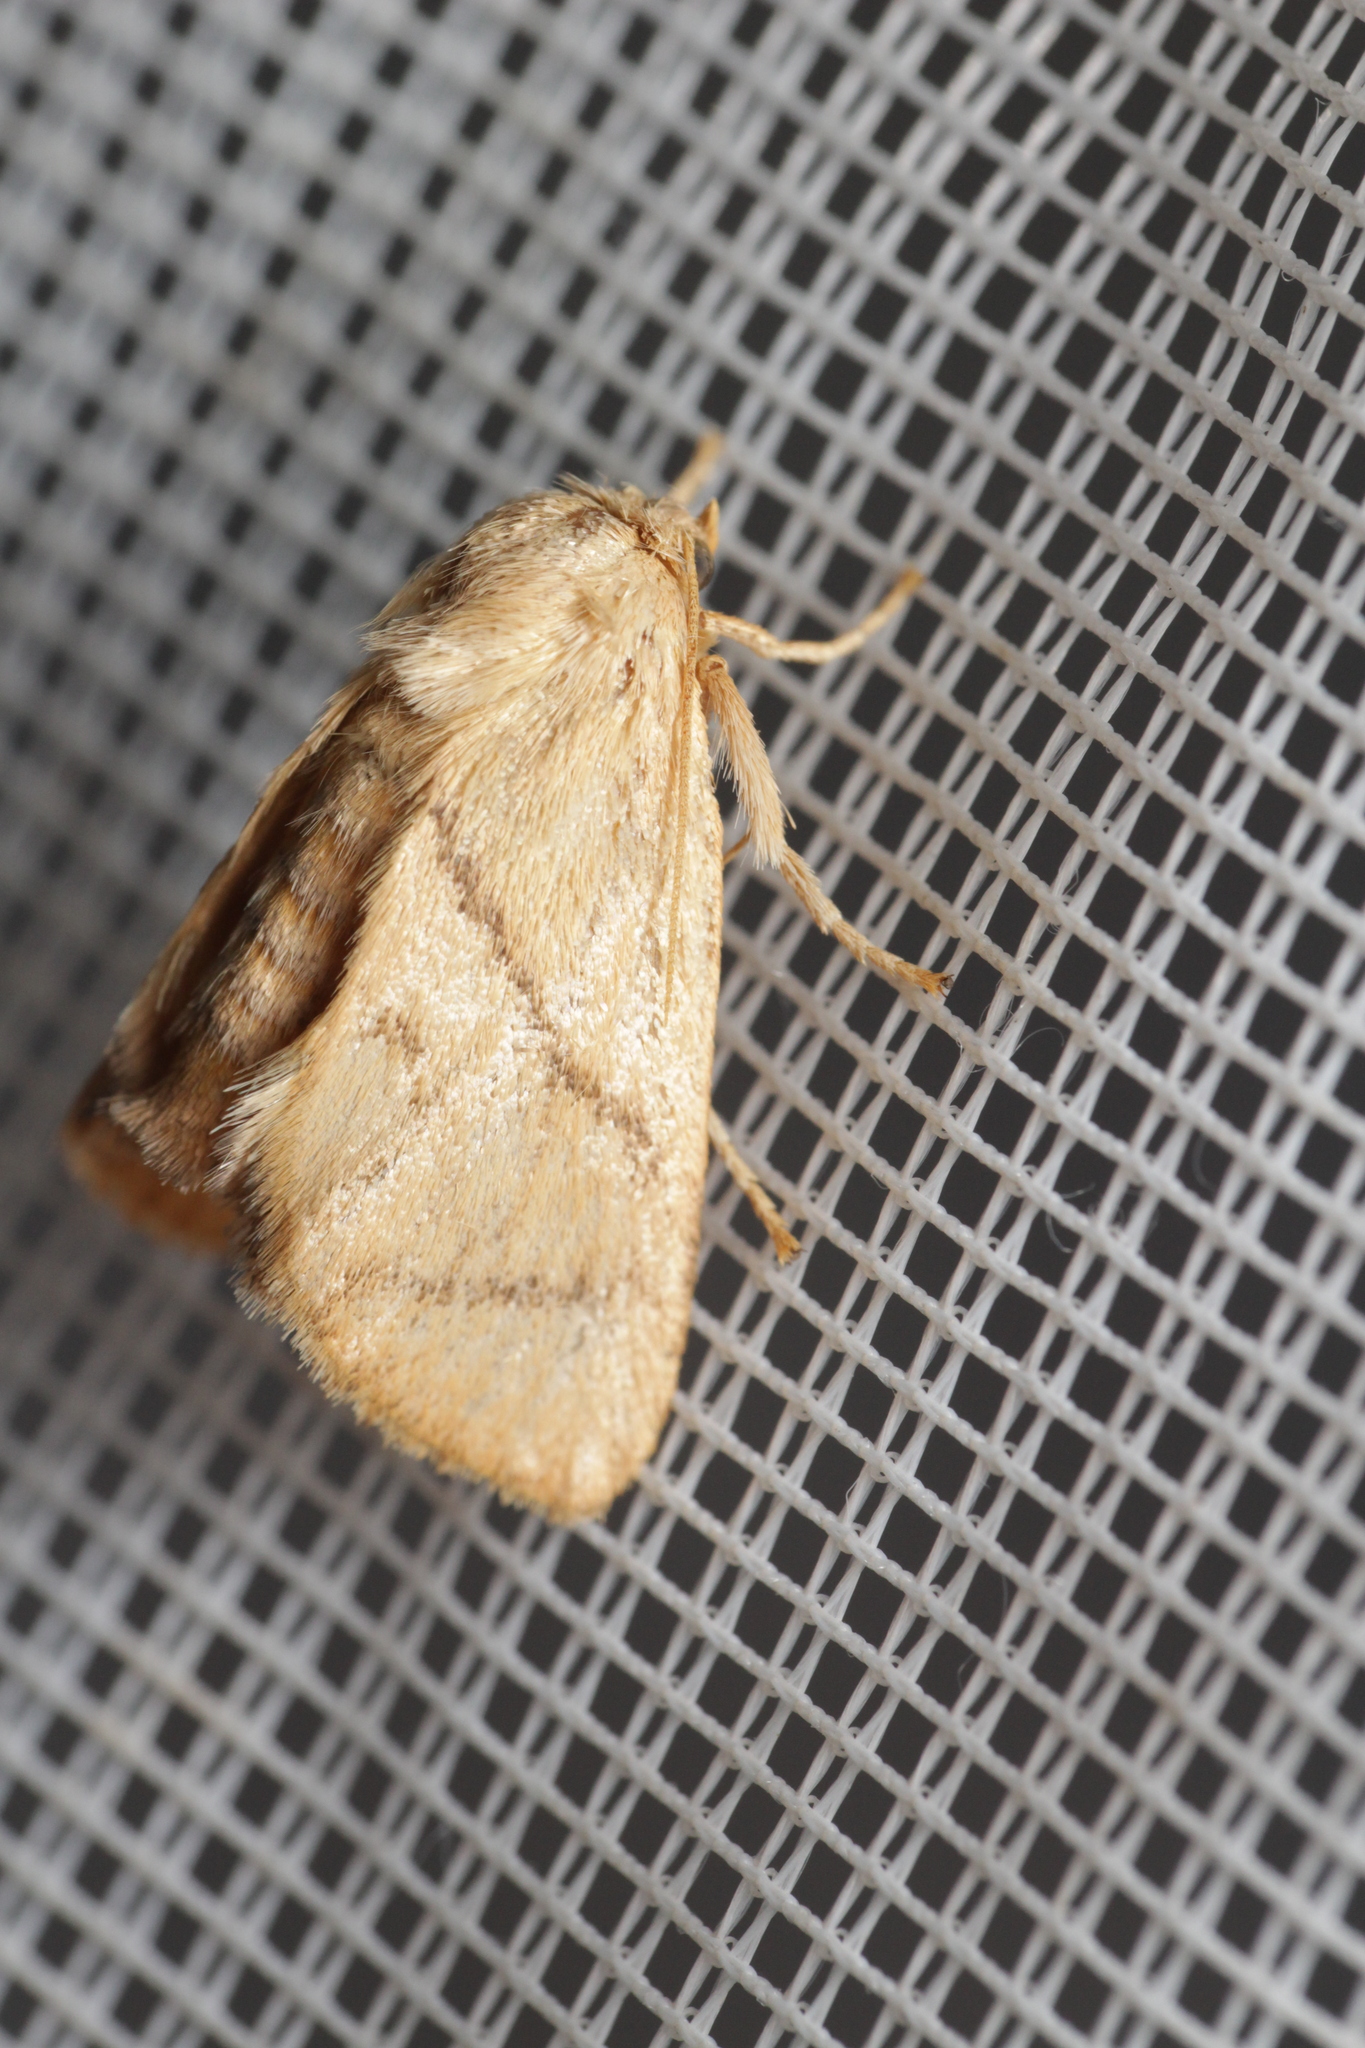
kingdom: Animalia
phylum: Arthropoda
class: Insecta
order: Lepidoptera
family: Limacodidae
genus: Apoda
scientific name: Apoda limacodes
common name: Festoon
